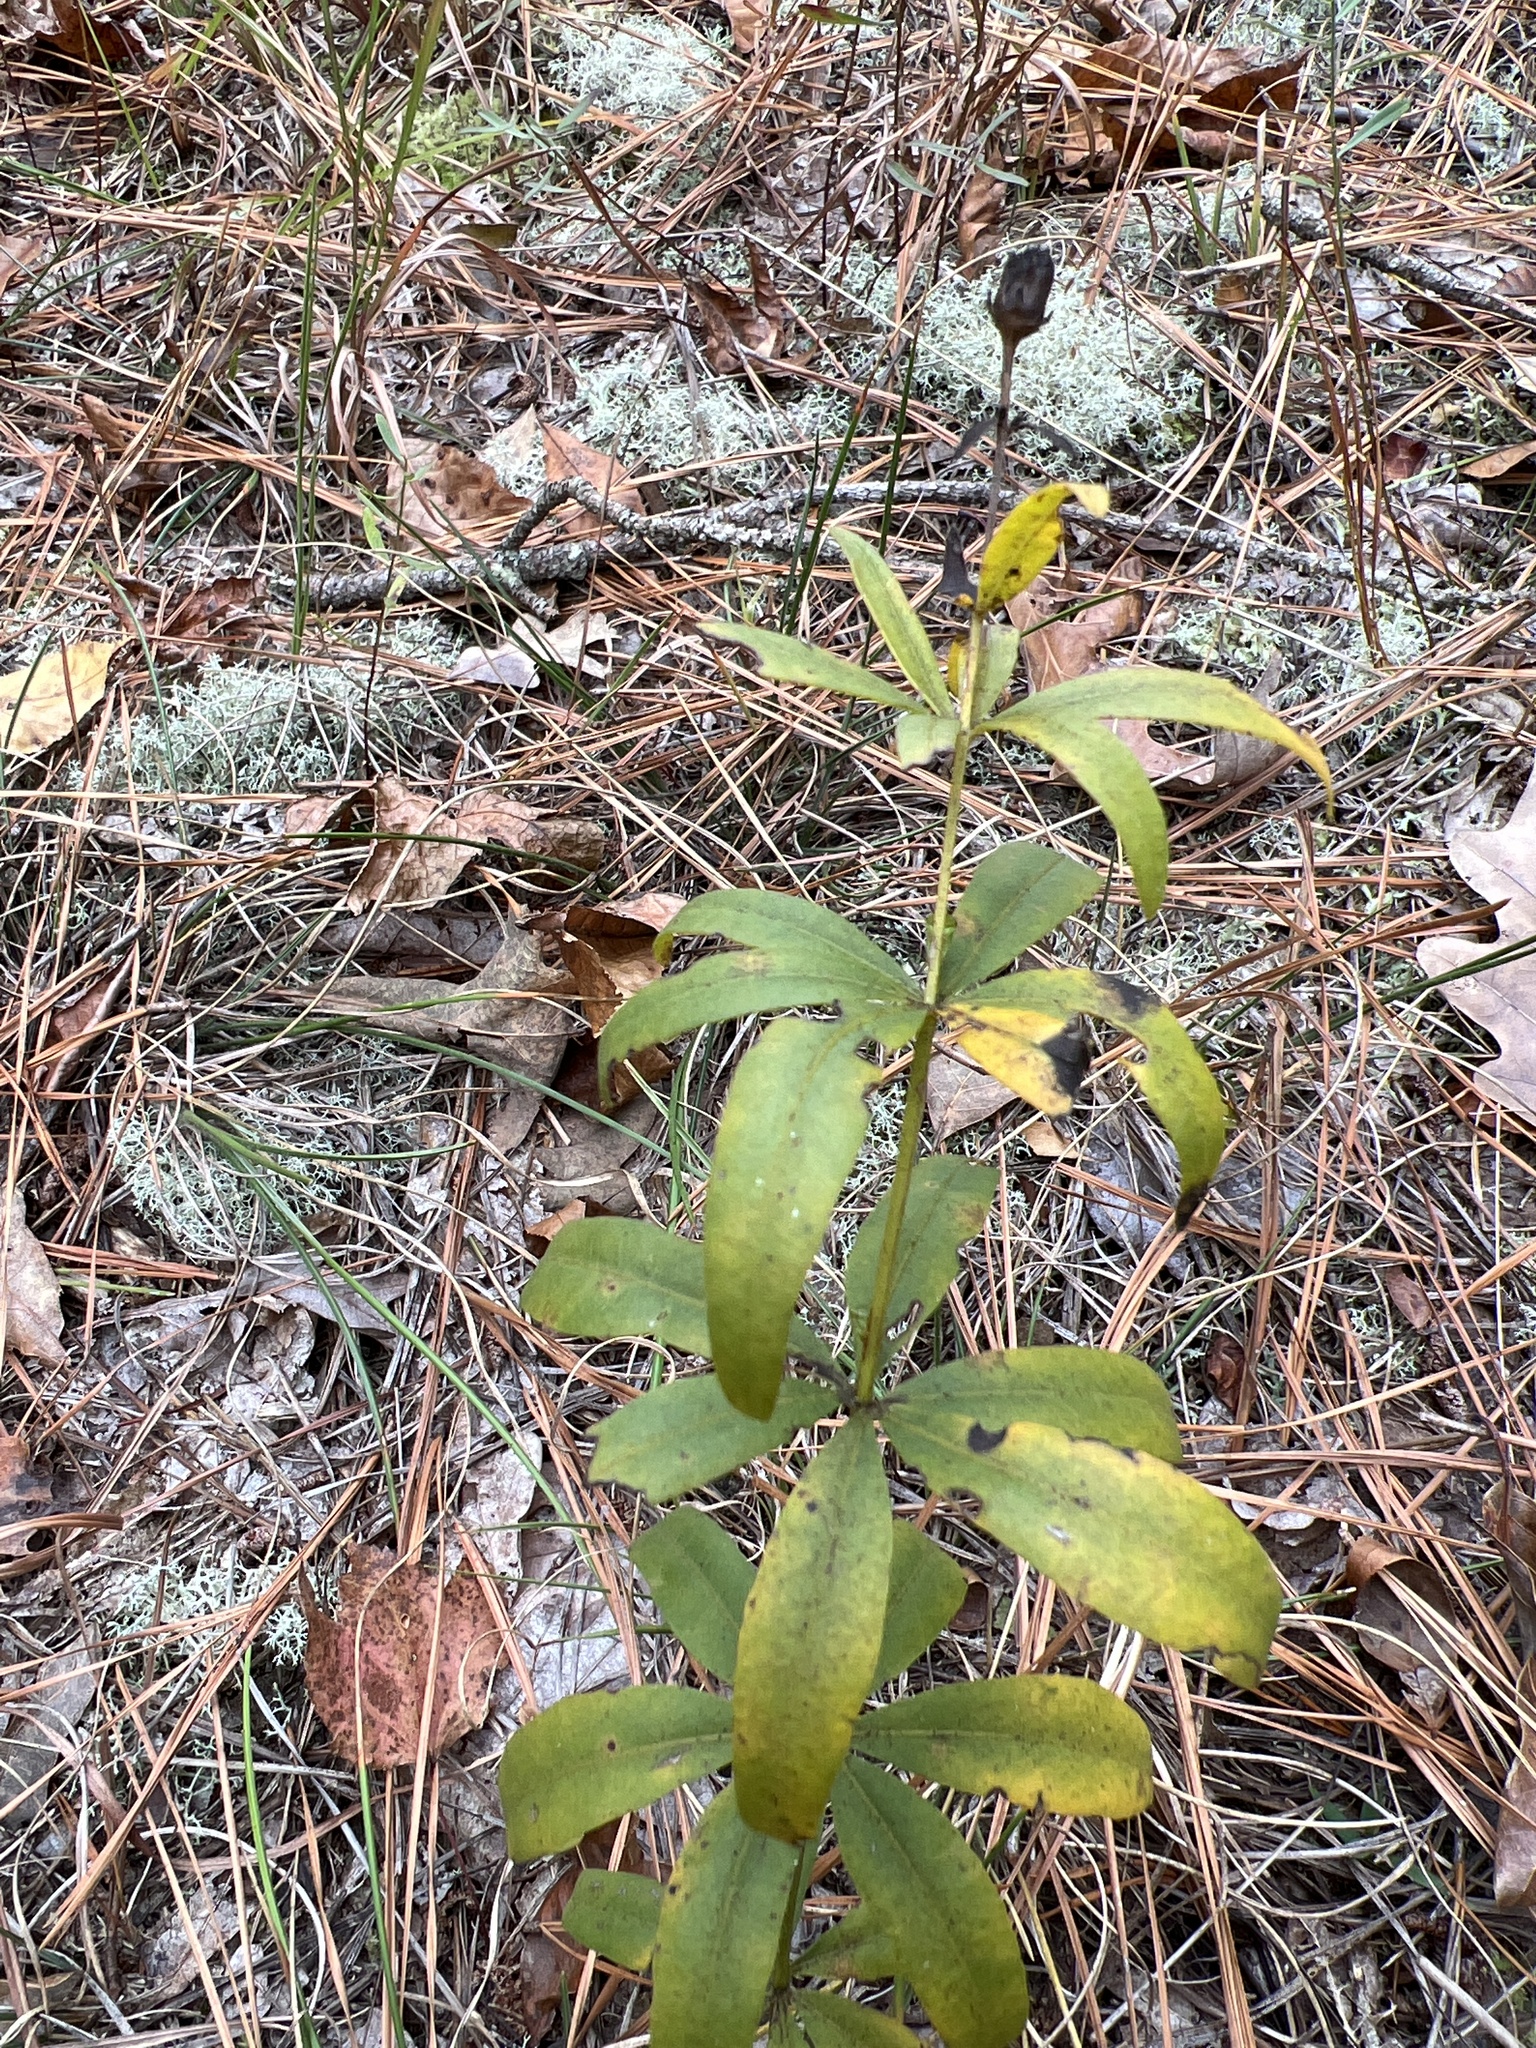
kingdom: Plantae
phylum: Tracheophyta
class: Magnoliopsida
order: Asterales
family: Asteraceae
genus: Coreopsis
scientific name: Coreopsis major
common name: Forest tickseed
